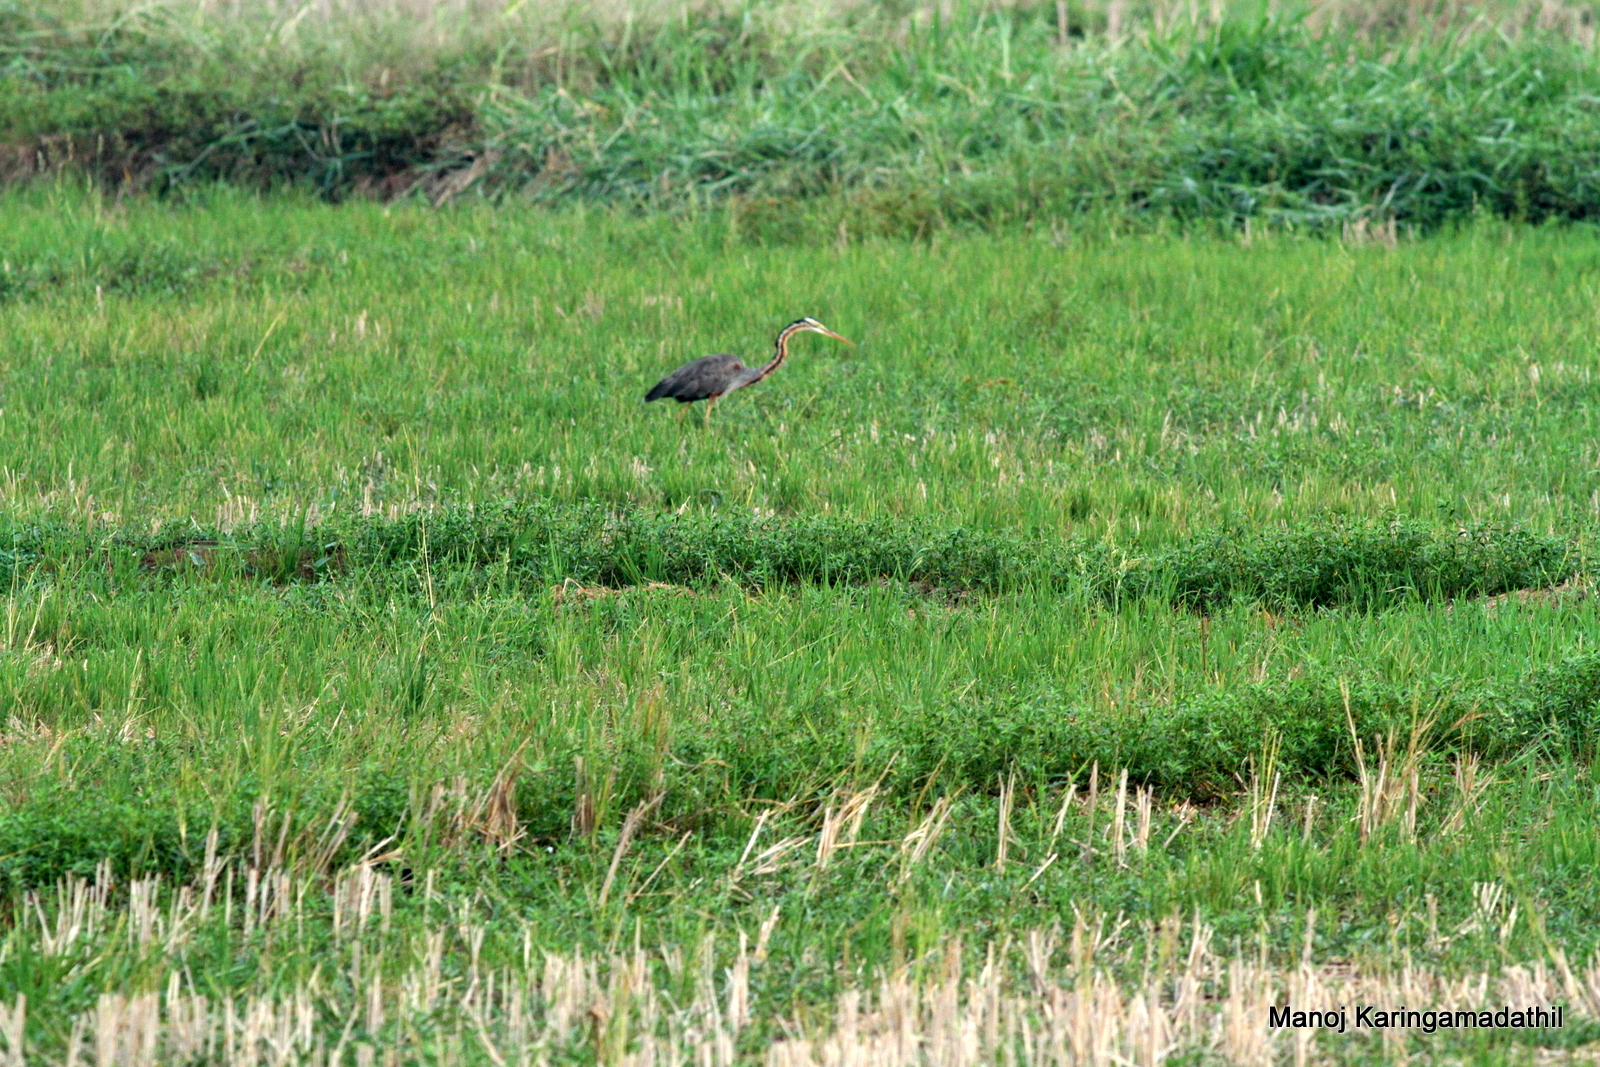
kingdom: Animalia
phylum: Chordata
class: Aves
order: Pelecaniformes
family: Ardeidae
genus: Ardea
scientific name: Ardea purpurea
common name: Purple heron
